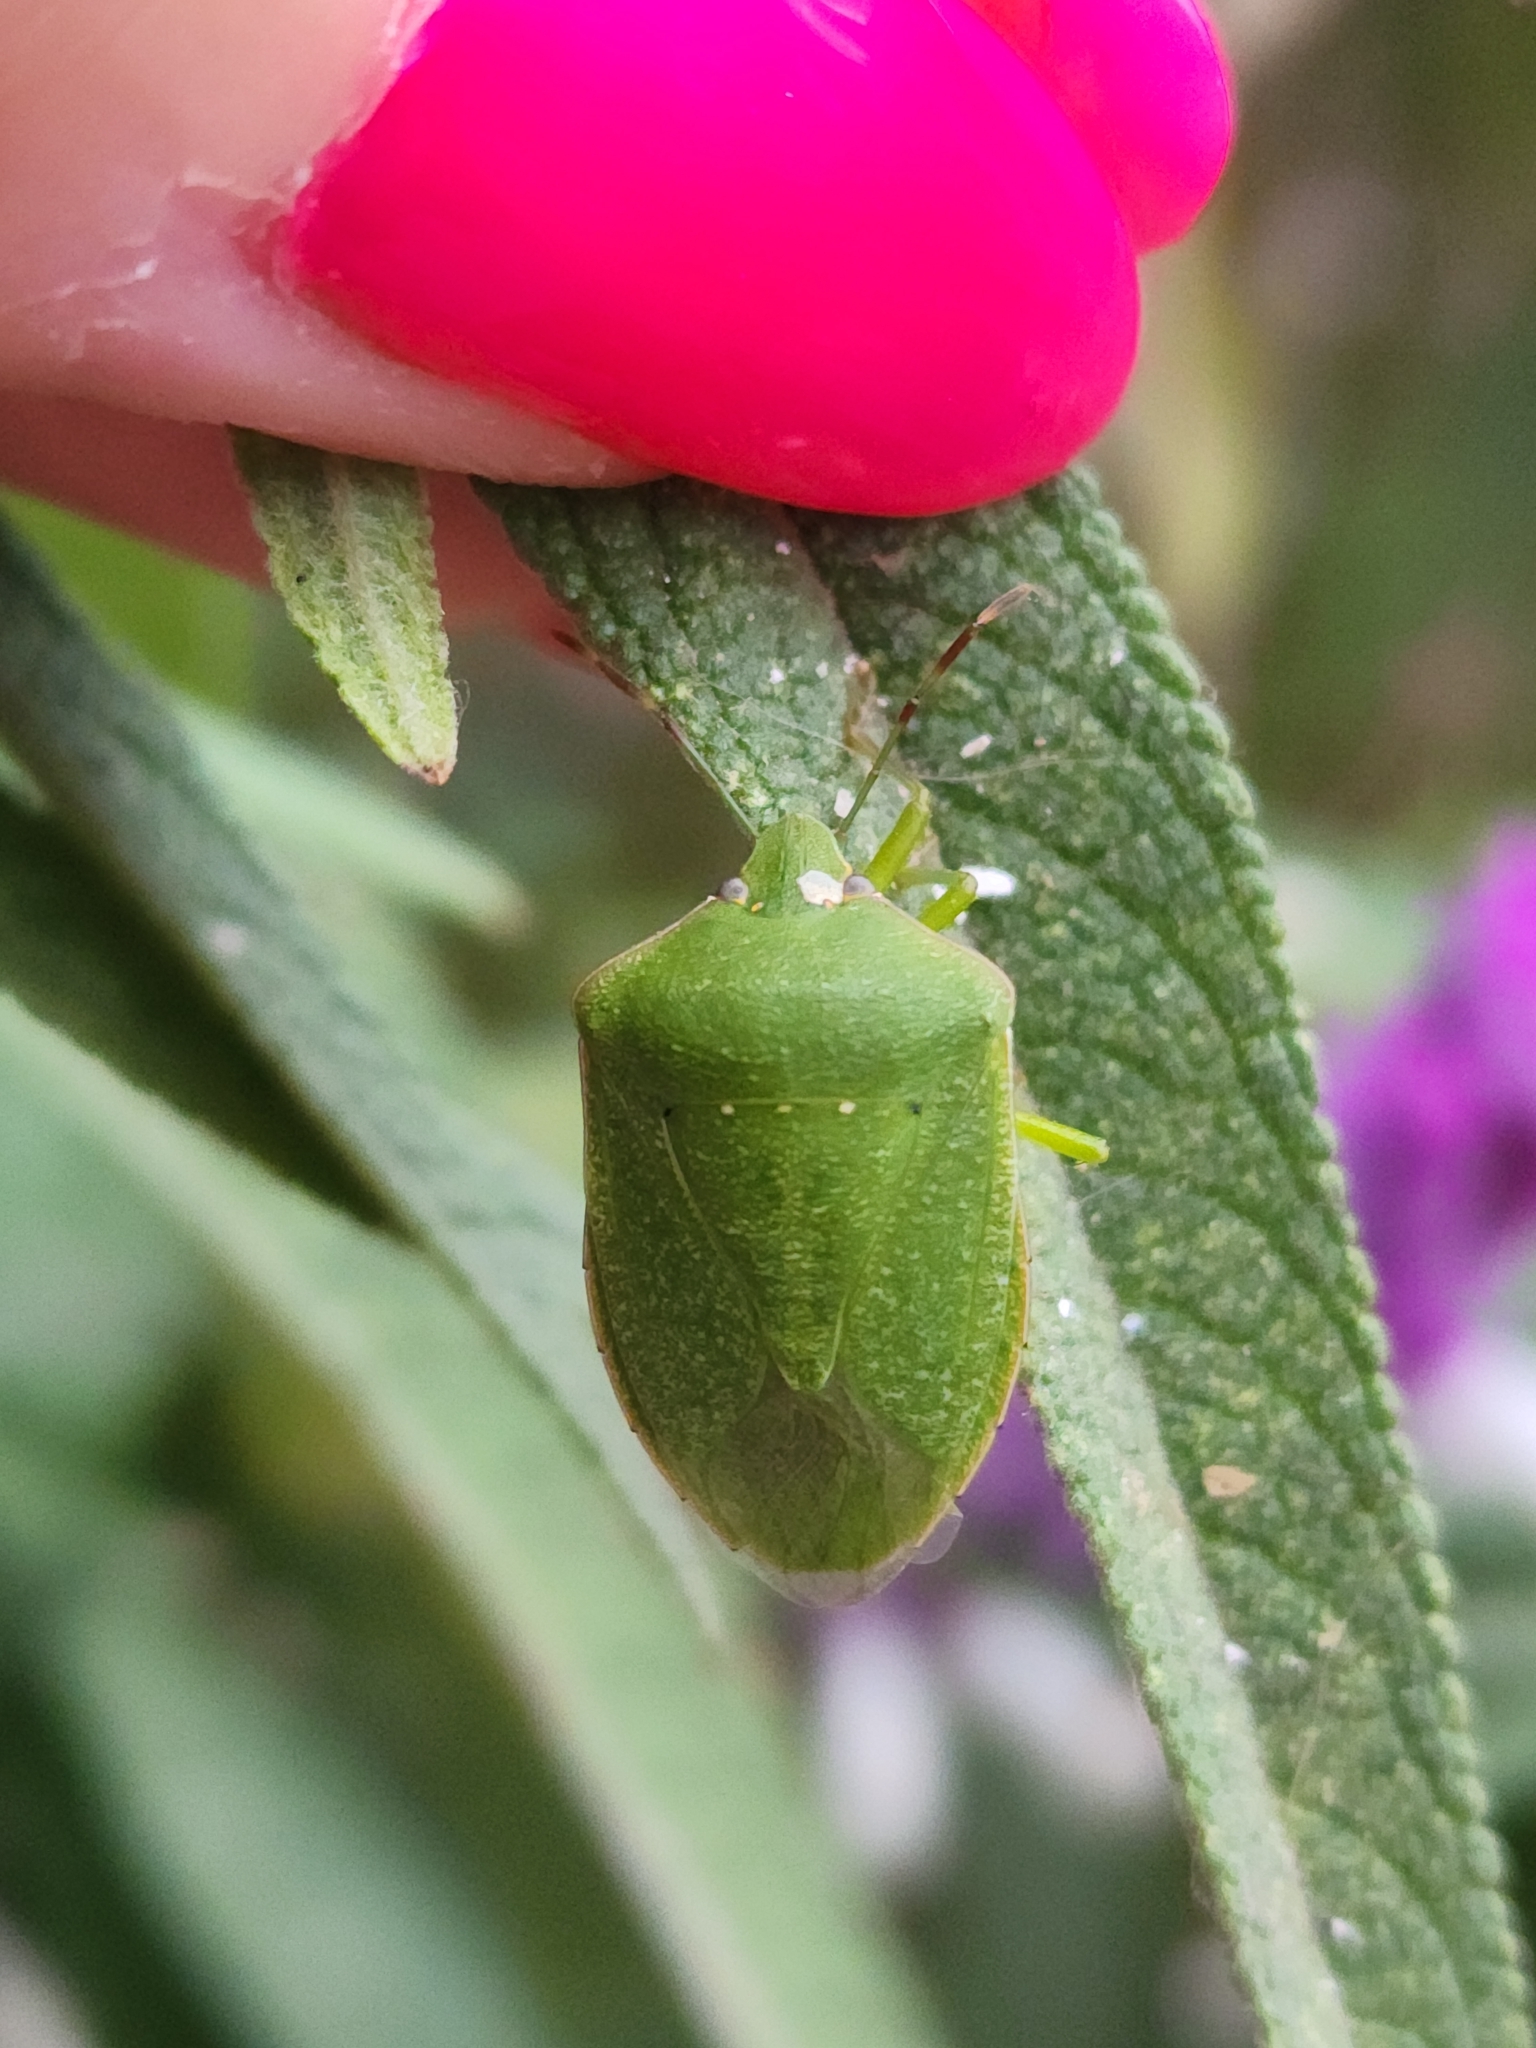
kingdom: Animalia
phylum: Arthropoda
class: Insecta
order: Hemiptera
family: Pentatomidae
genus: Nezara
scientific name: Nezara viridula
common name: Southern green stink bug
